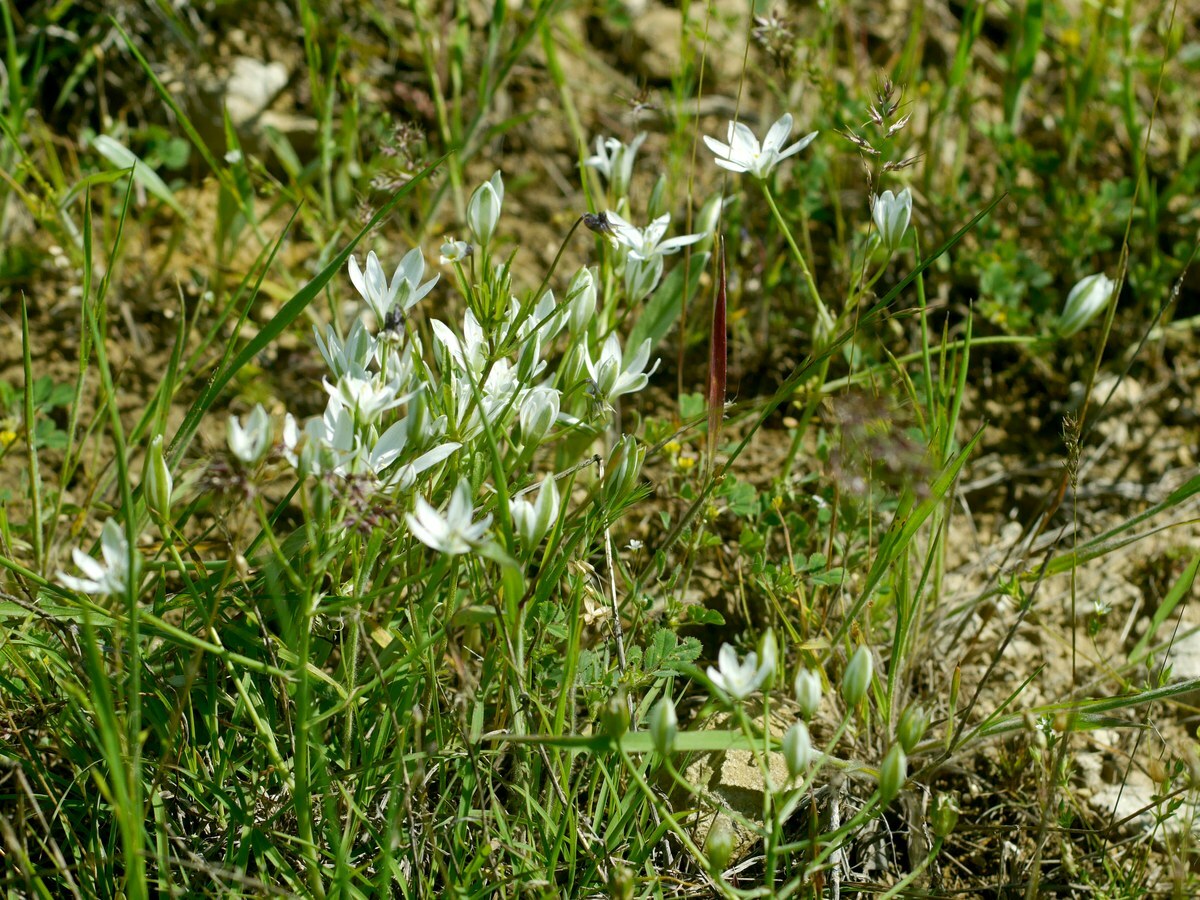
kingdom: Plantae
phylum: Tracheophyta
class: Liliopsida
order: Asparagales
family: Asparagaceae
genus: Ornithogalum
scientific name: Ornithogalum orthophyllum
